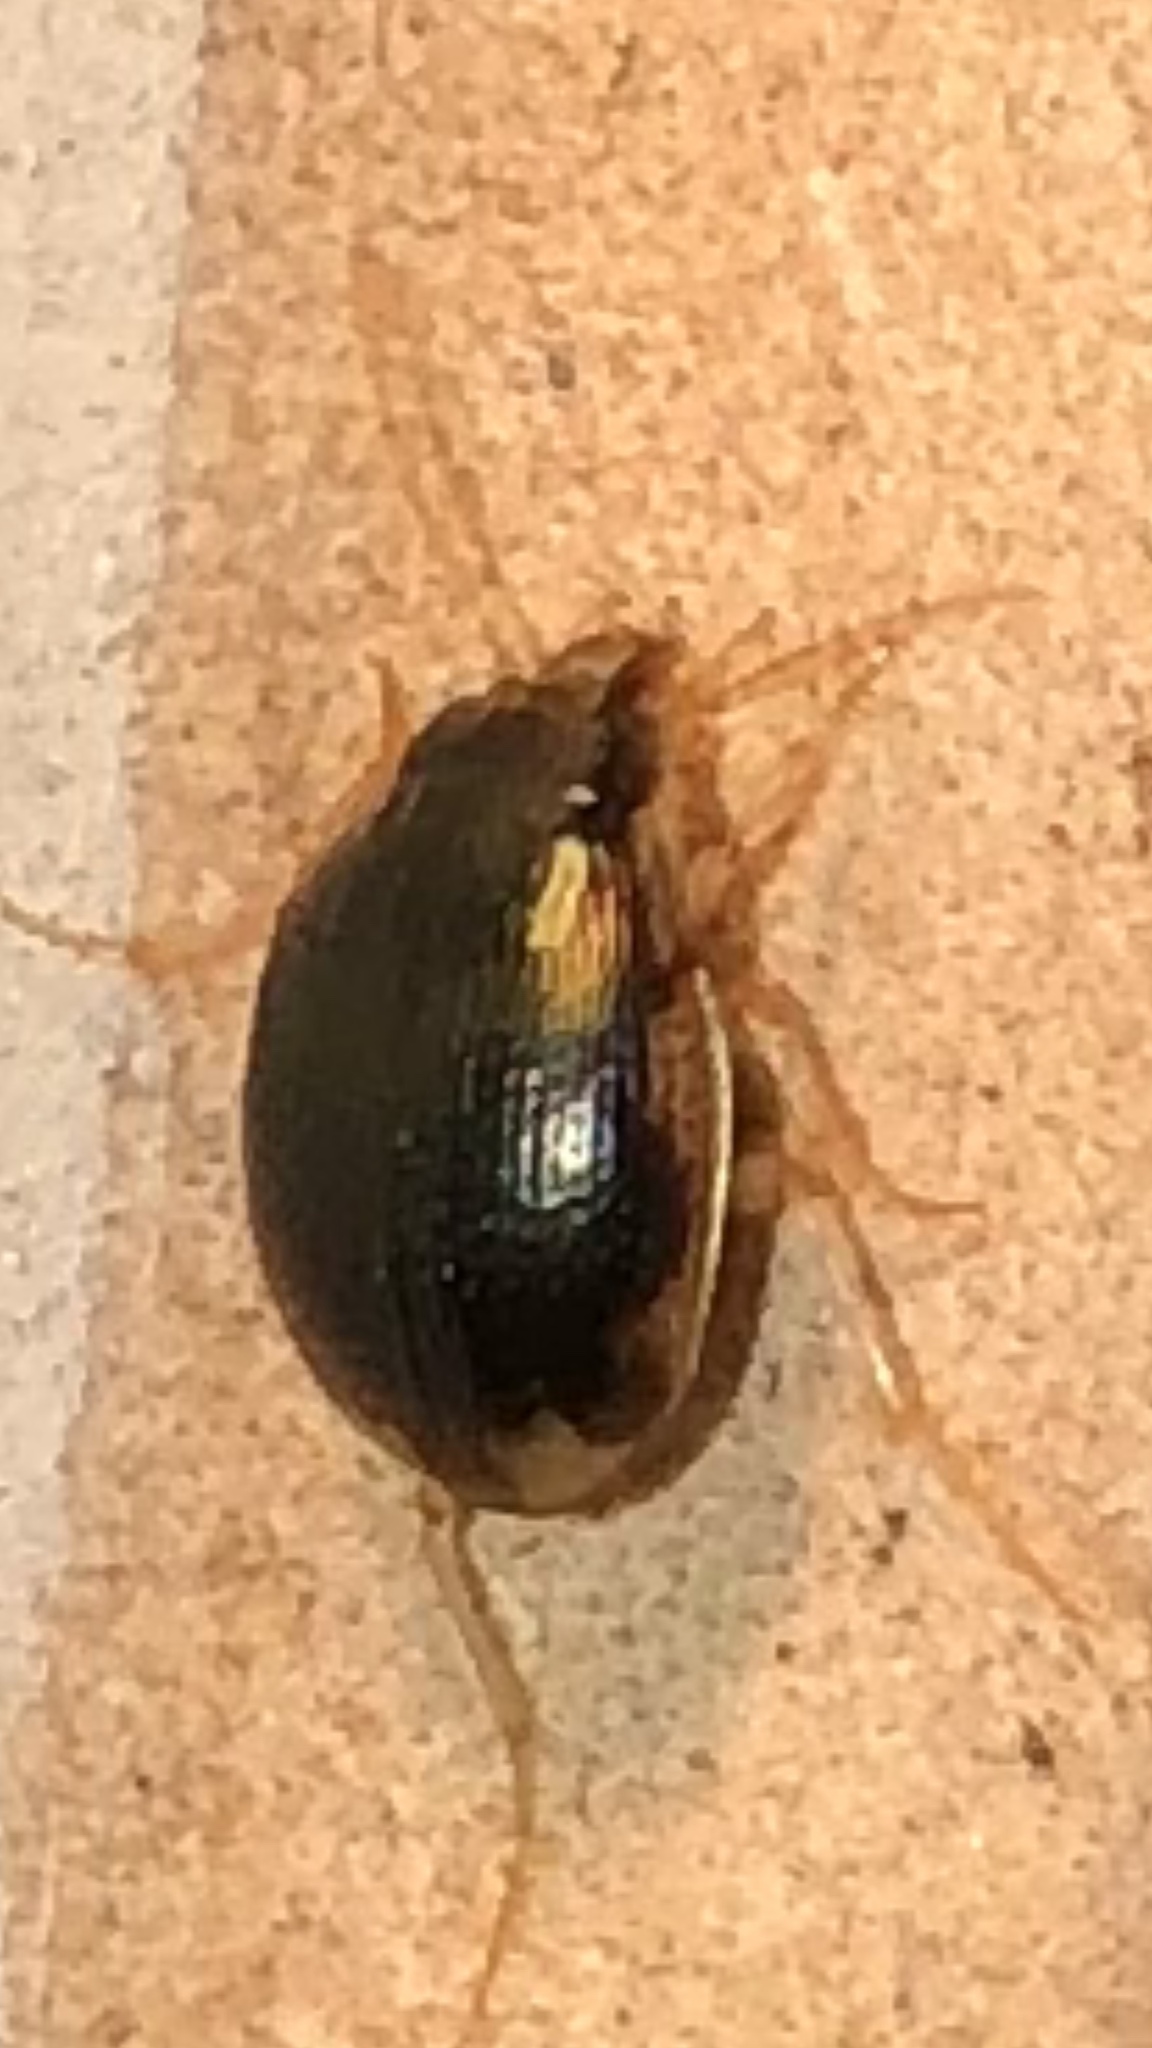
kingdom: Animalia
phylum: Arthropoda
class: Insecta
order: Coleoptera
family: Carabidae
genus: Omophron
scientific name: Omophron americanum
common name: American round sand beetle
